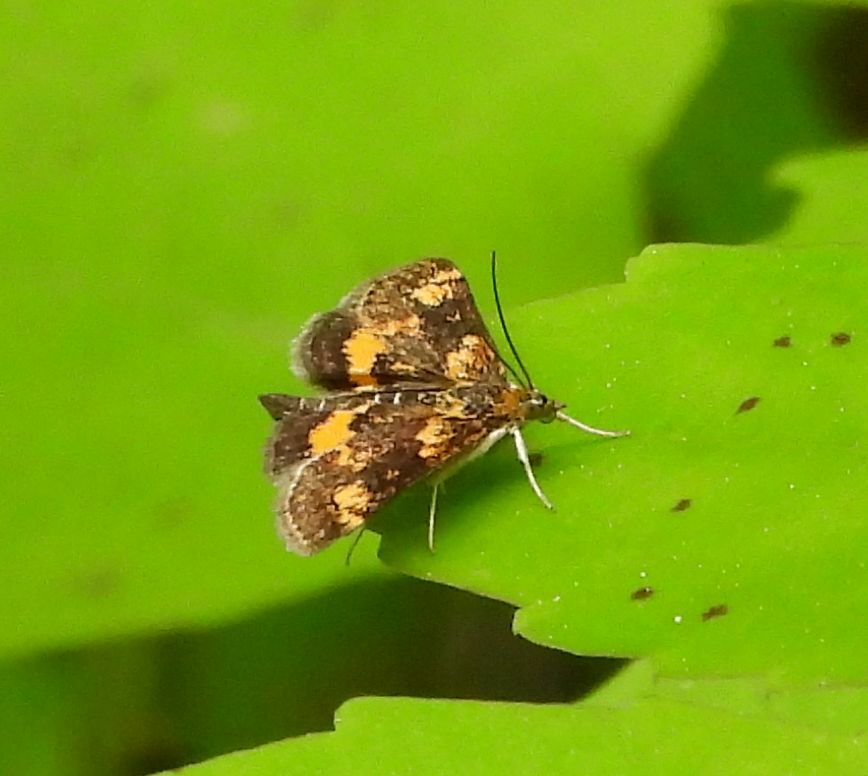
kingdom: Animalia
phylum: Arthropoda
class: Insecta
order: Lepidoptera
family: Crambidae
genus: Pyrausta
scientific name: Pyrausta orphisalis
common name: Orange mint moth
